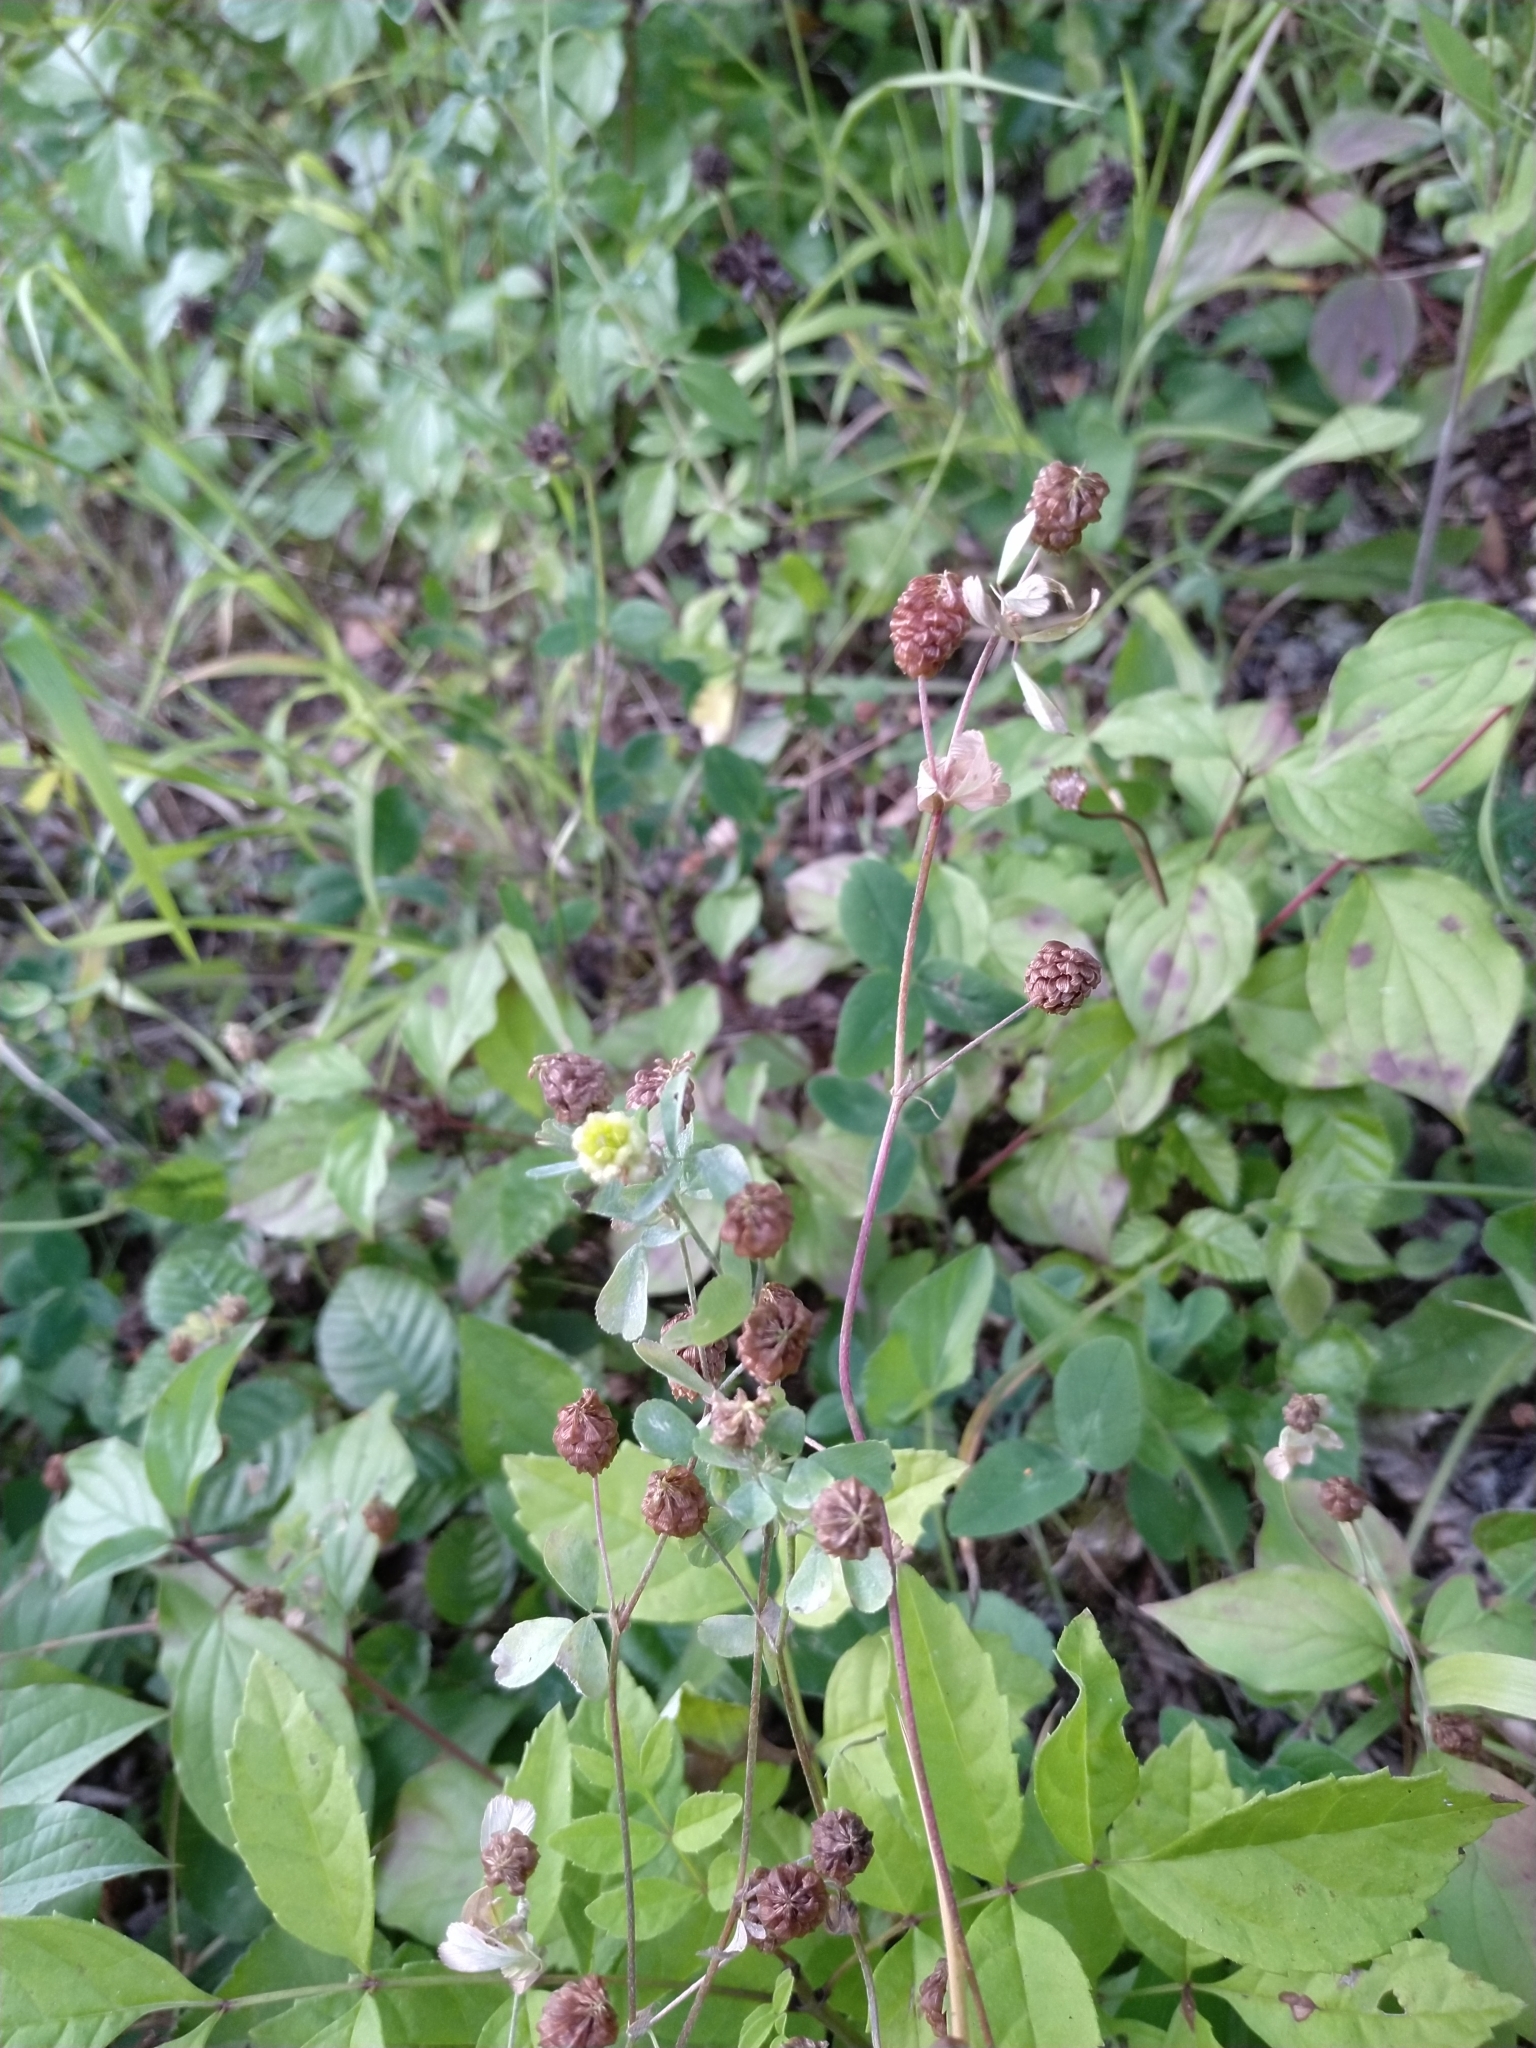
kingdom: Plantae
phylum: Tracheophyta
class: Magnoliopsida
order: Fabales
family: Fabaceae
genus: Trifolium
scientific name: Trifolium campestre
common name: Field clover
